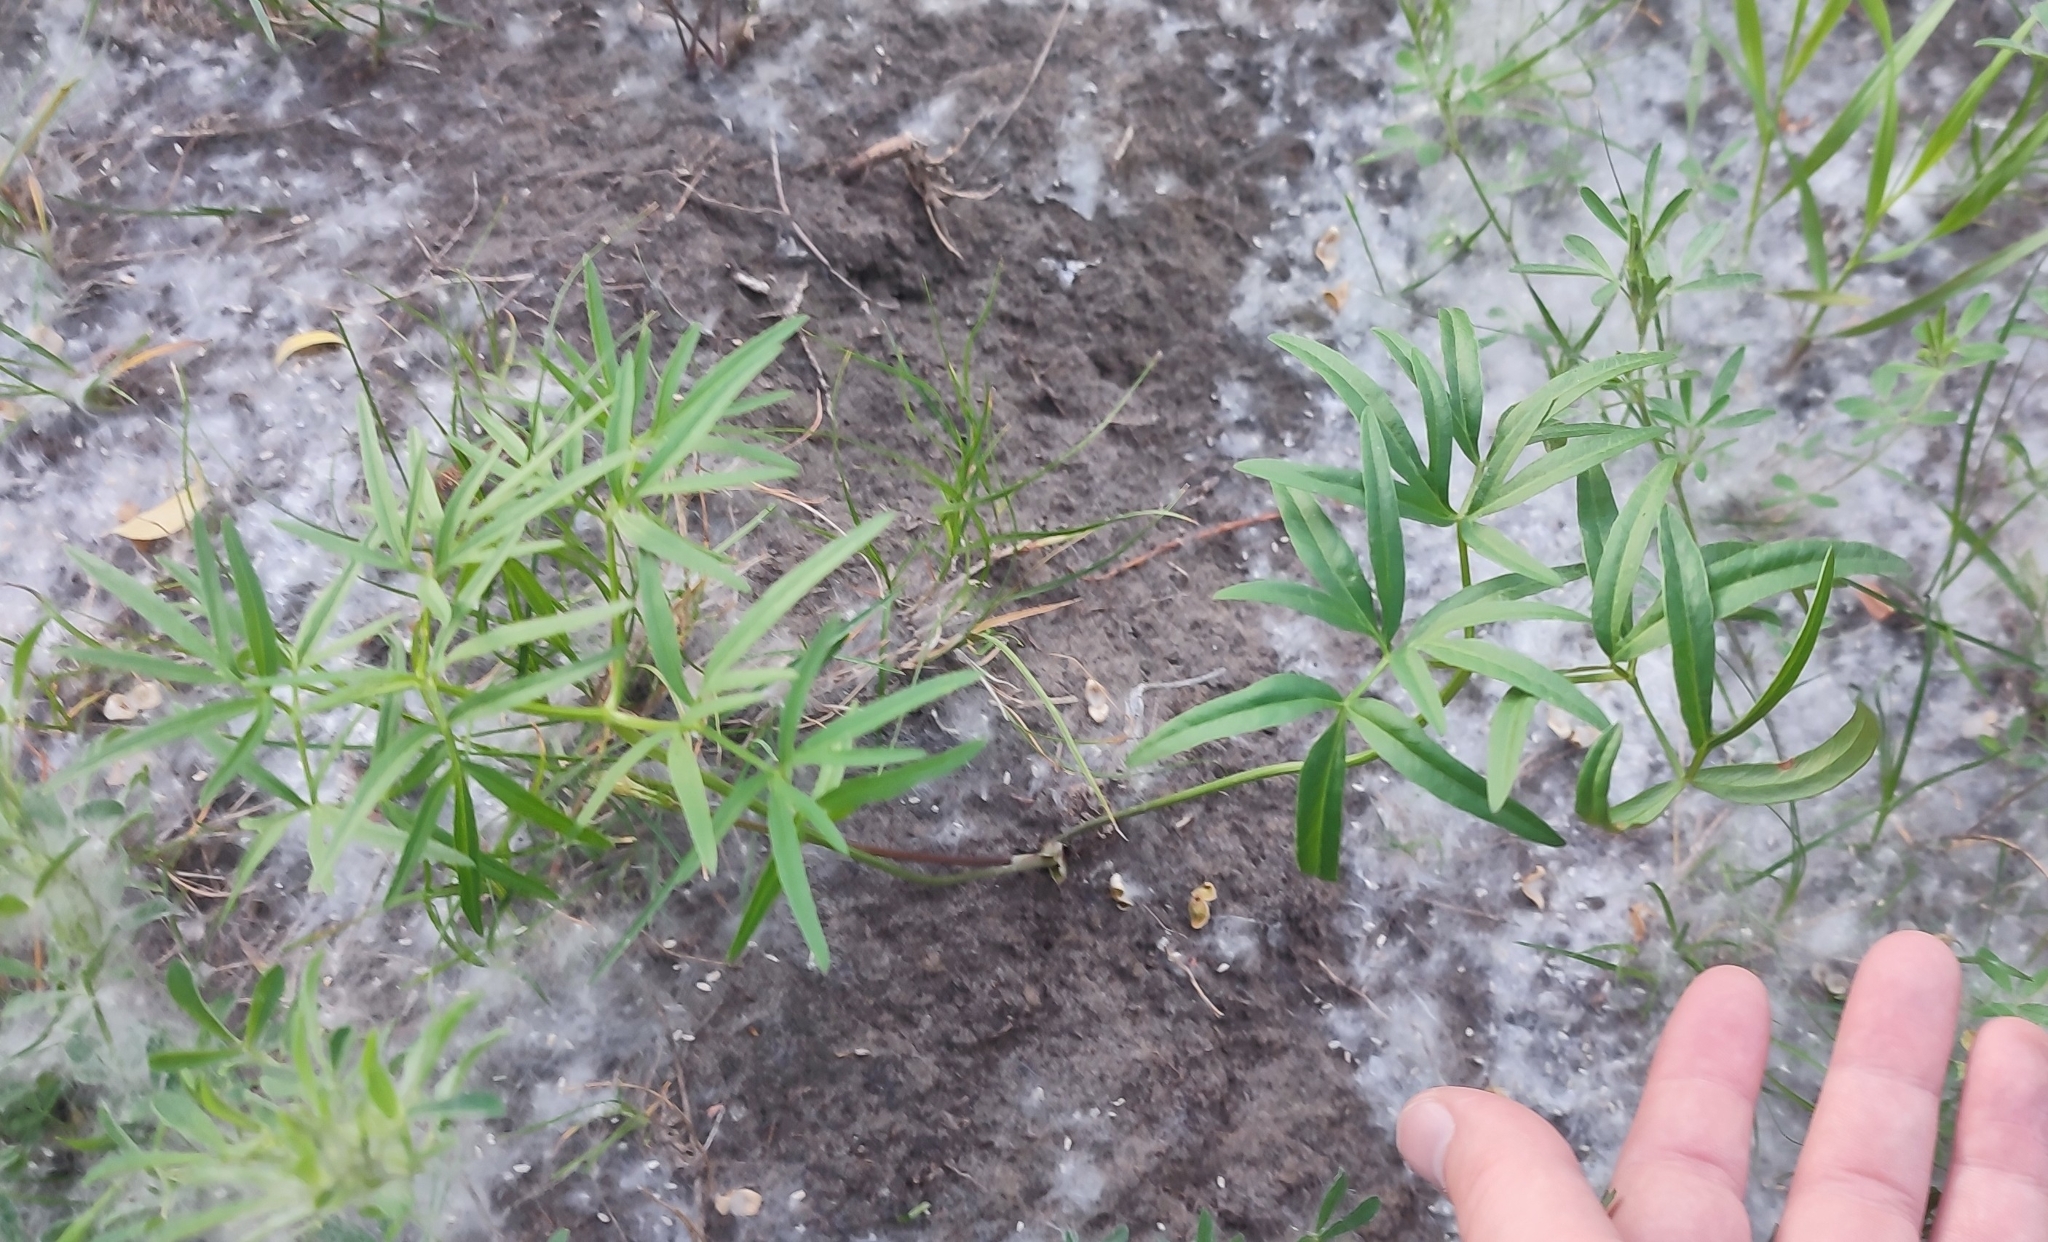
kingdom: Plantae
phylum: Tracheophyta
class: Magnoliopsida
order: Apiales
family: Apiaceae
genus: Cenolophium
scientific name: Cenolophium fischeri
